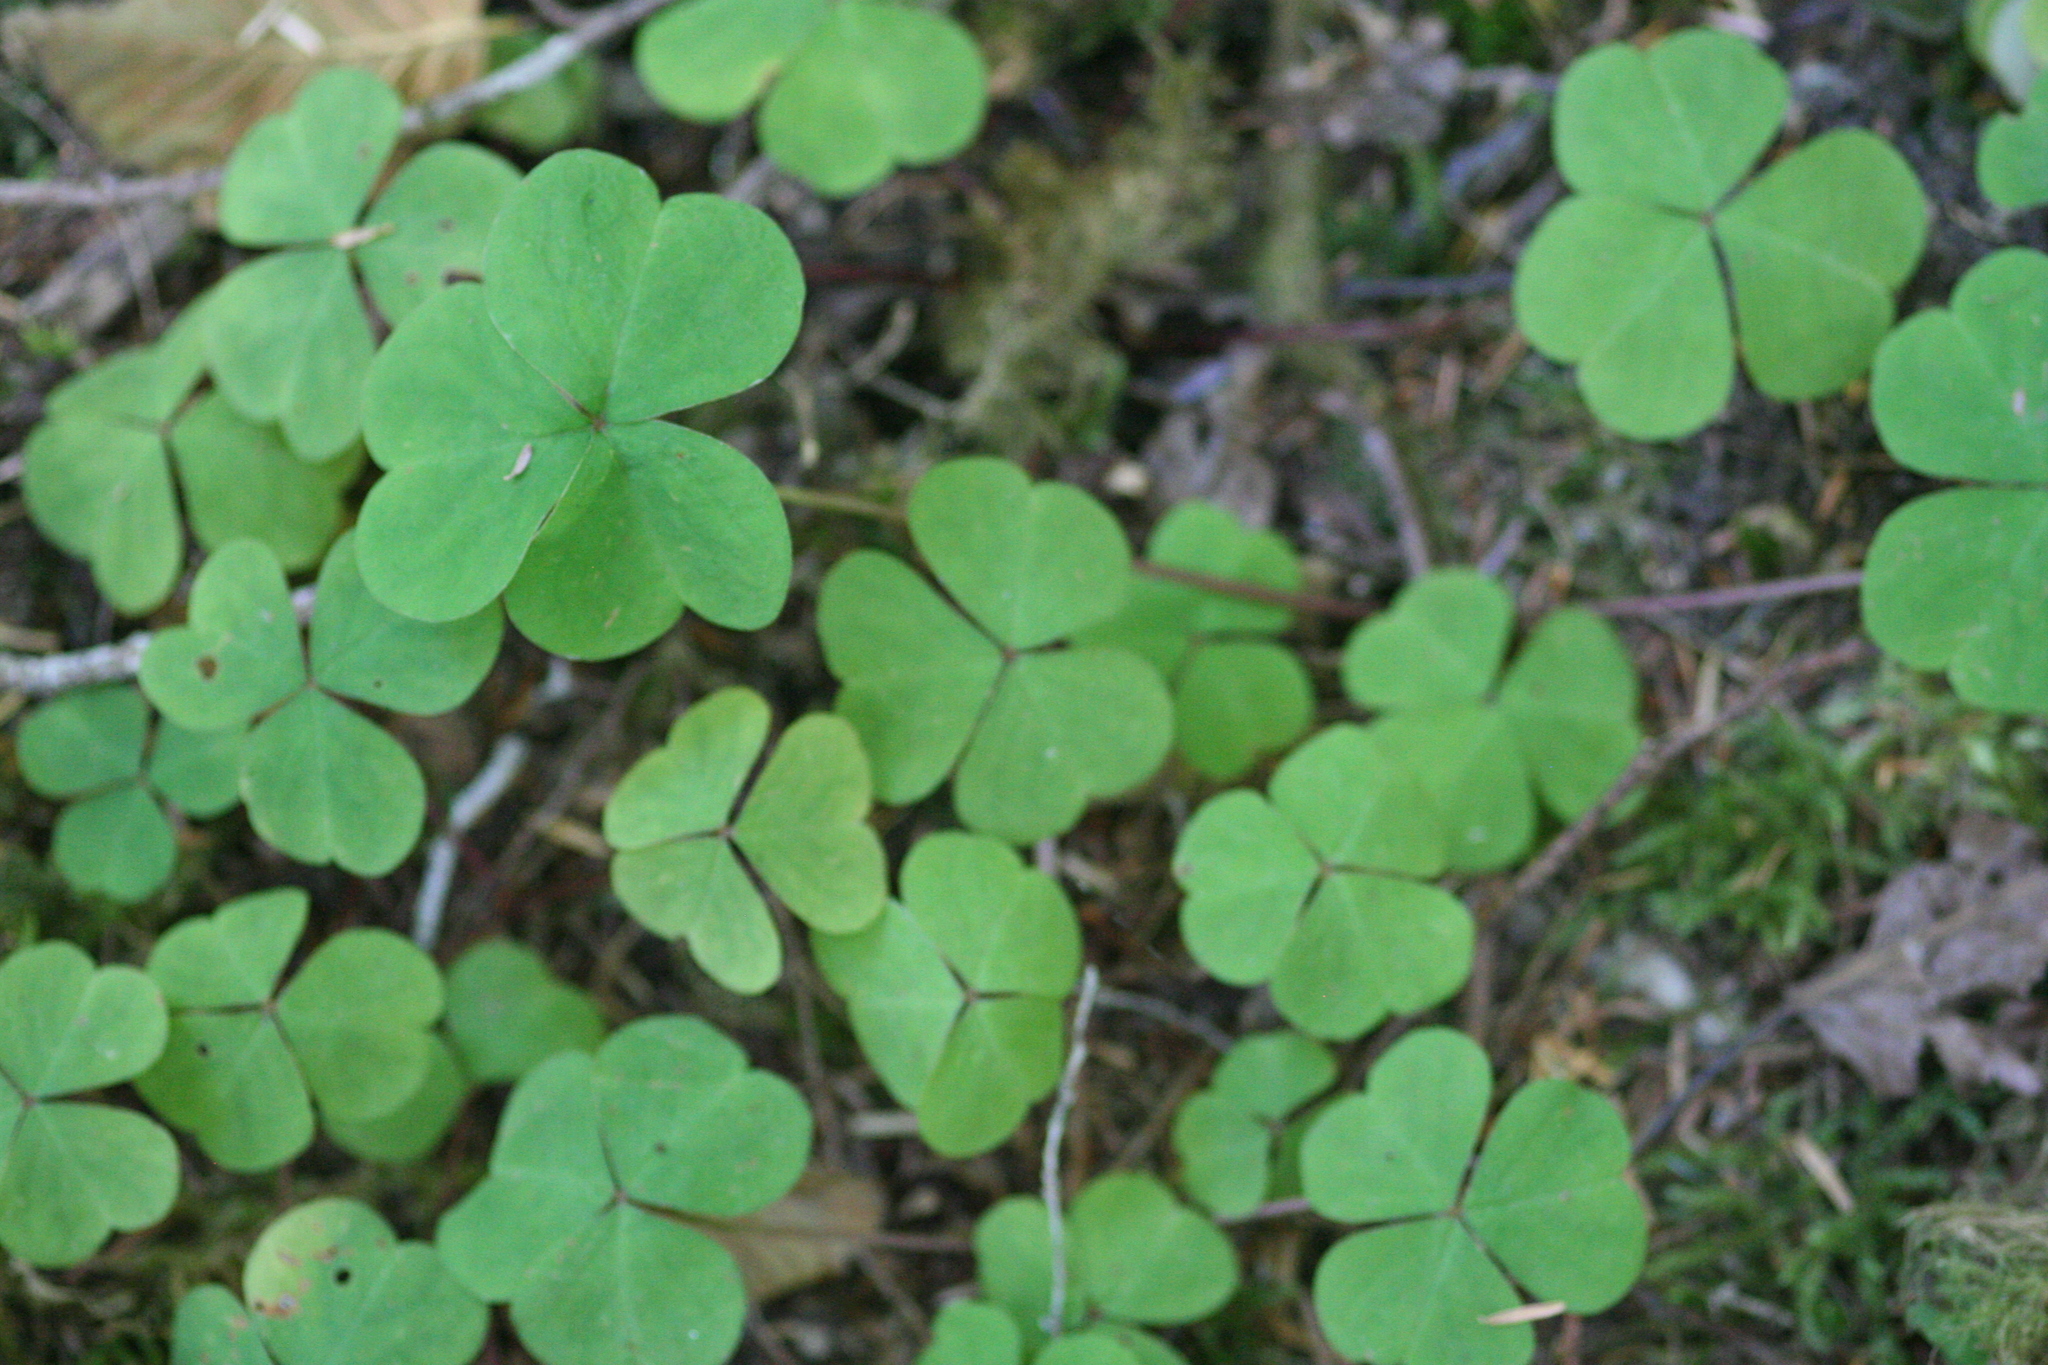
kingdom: Plantae
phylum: Tracheophyta
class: Magnoliopsida
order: Oxalidales
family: Oxalidaceae
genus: Oxalis
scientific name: Oxalis oregana
